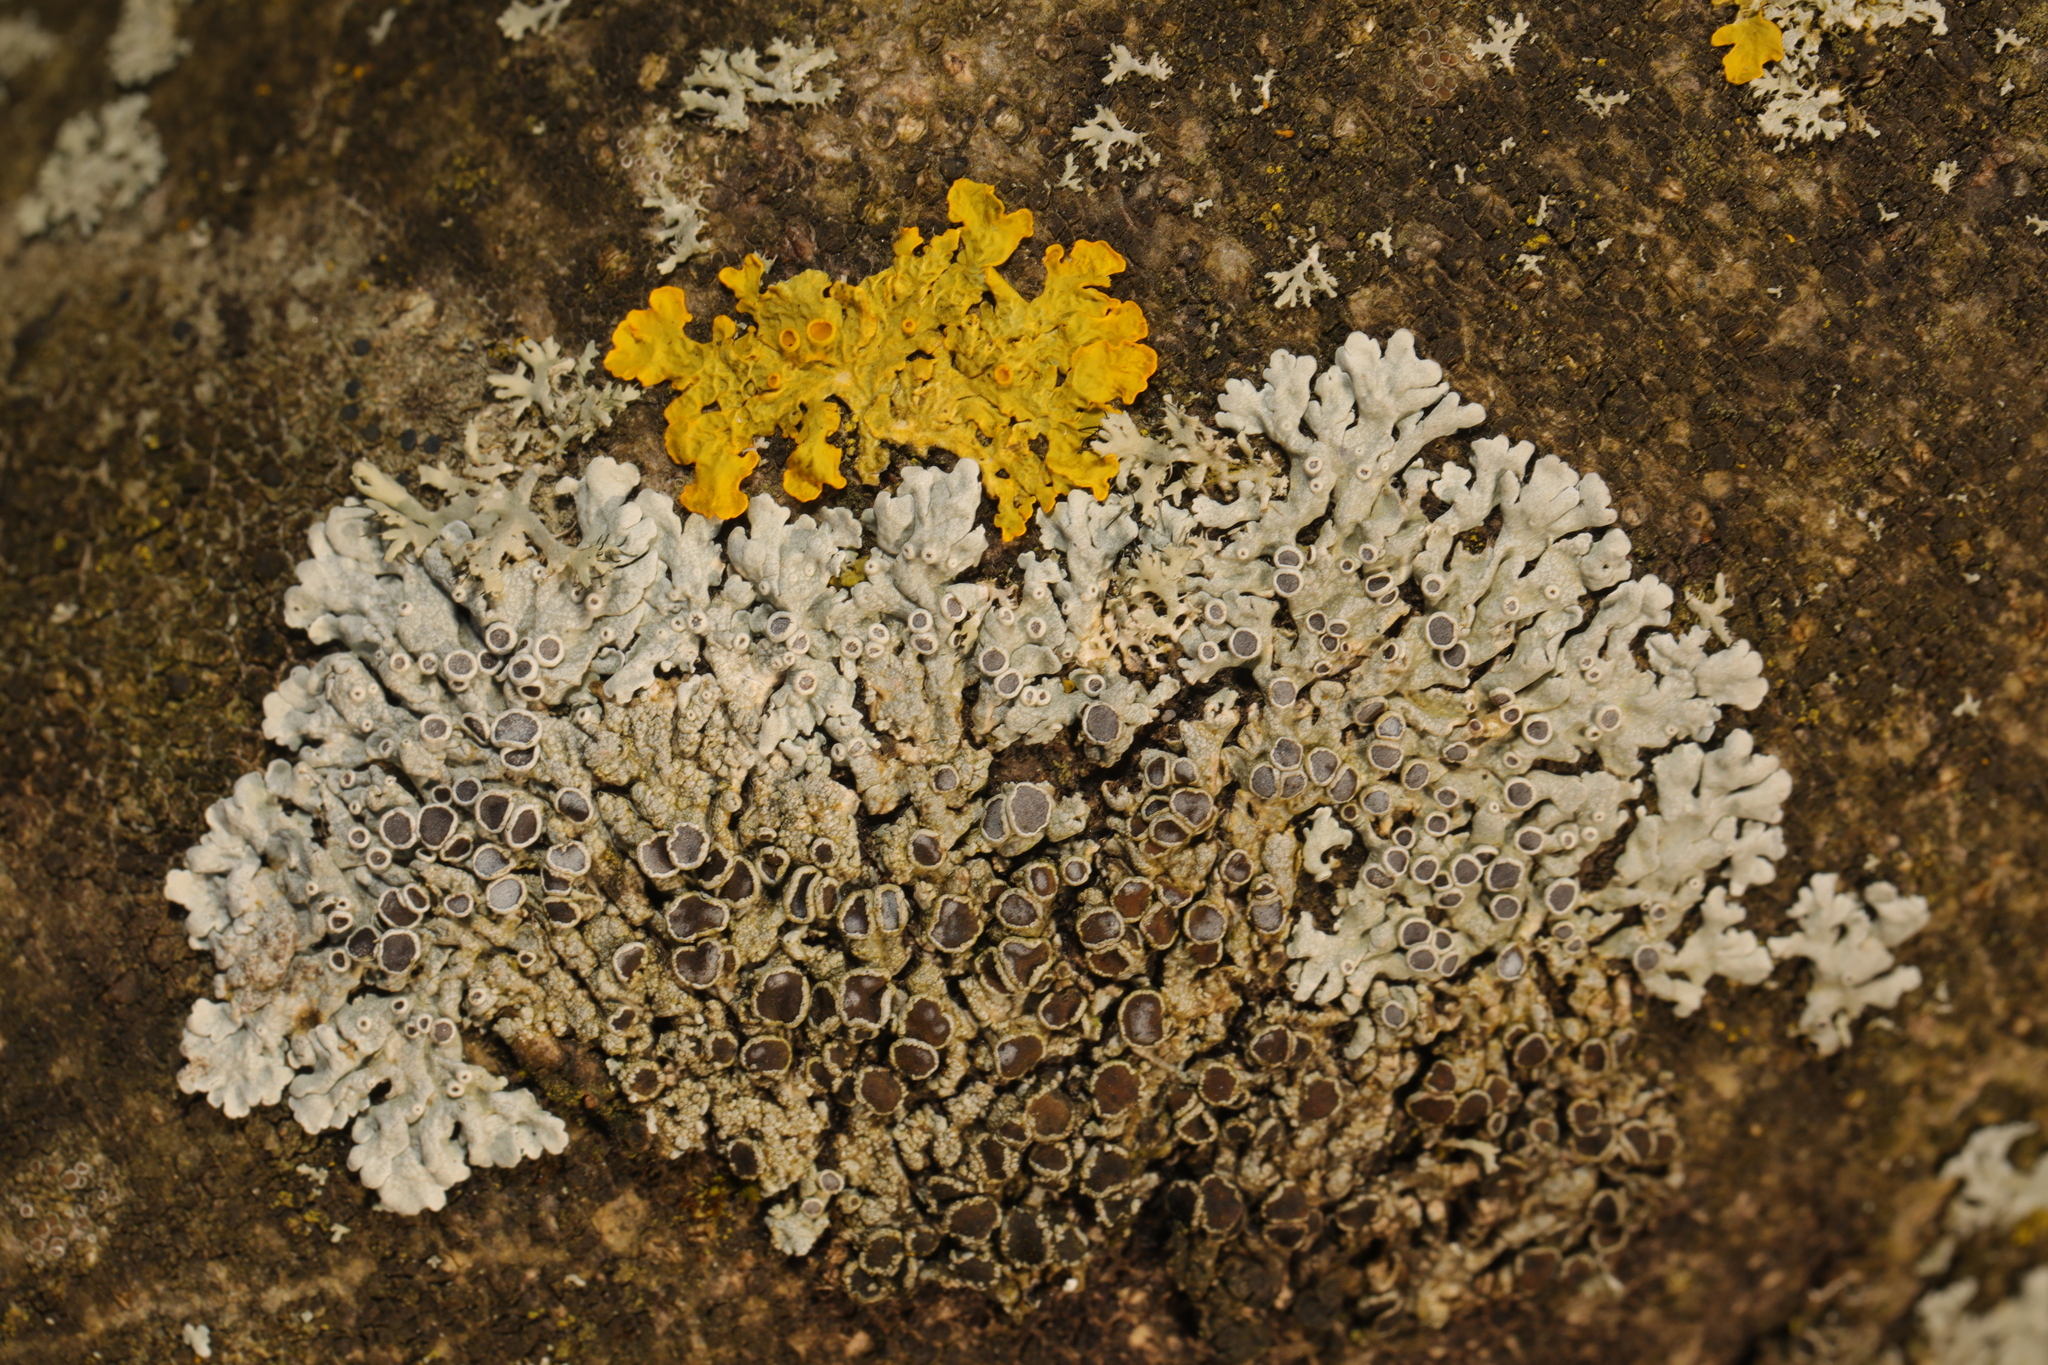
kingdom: Fungi
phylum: Ascomycota
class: Lecanoromycetes
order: Teloschistales
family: Teloschistaceae
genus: Xanthoria
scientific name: Xanthoria parietina
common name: Common orange lichen
